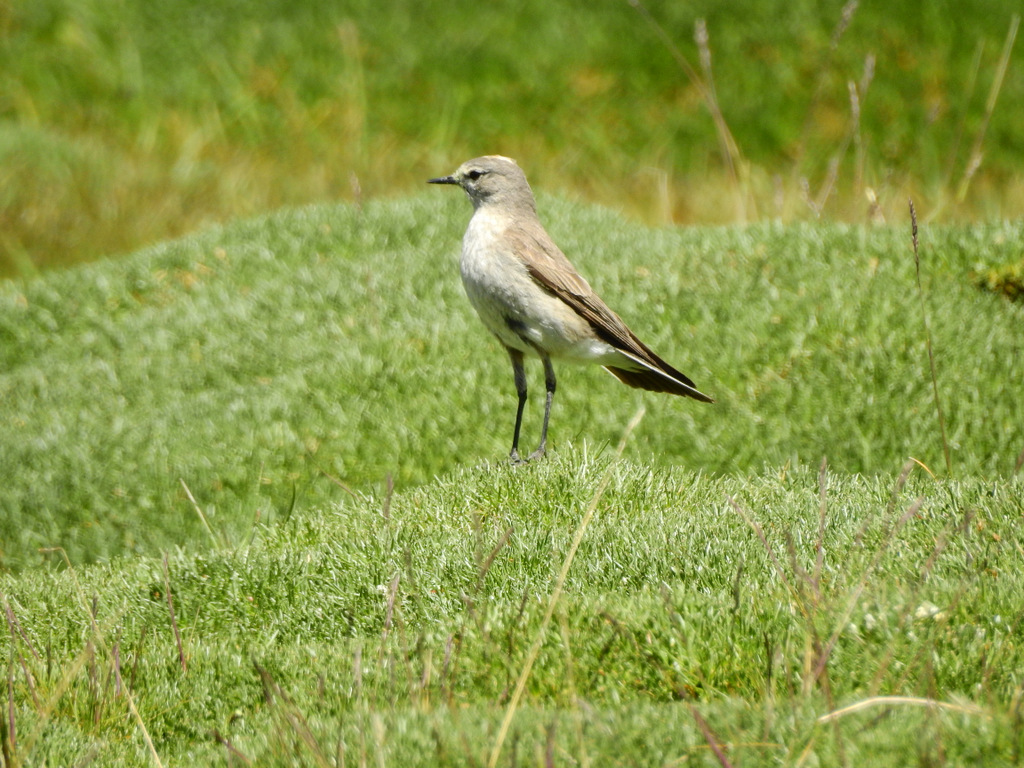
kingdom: Animalia
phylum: Chordata
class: Aves
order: Passeriformes
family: Tyrannidae
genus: Muscisaxicola
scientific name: Muscisaxicola flavinucha
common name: Ochre-naped ground tyrant
